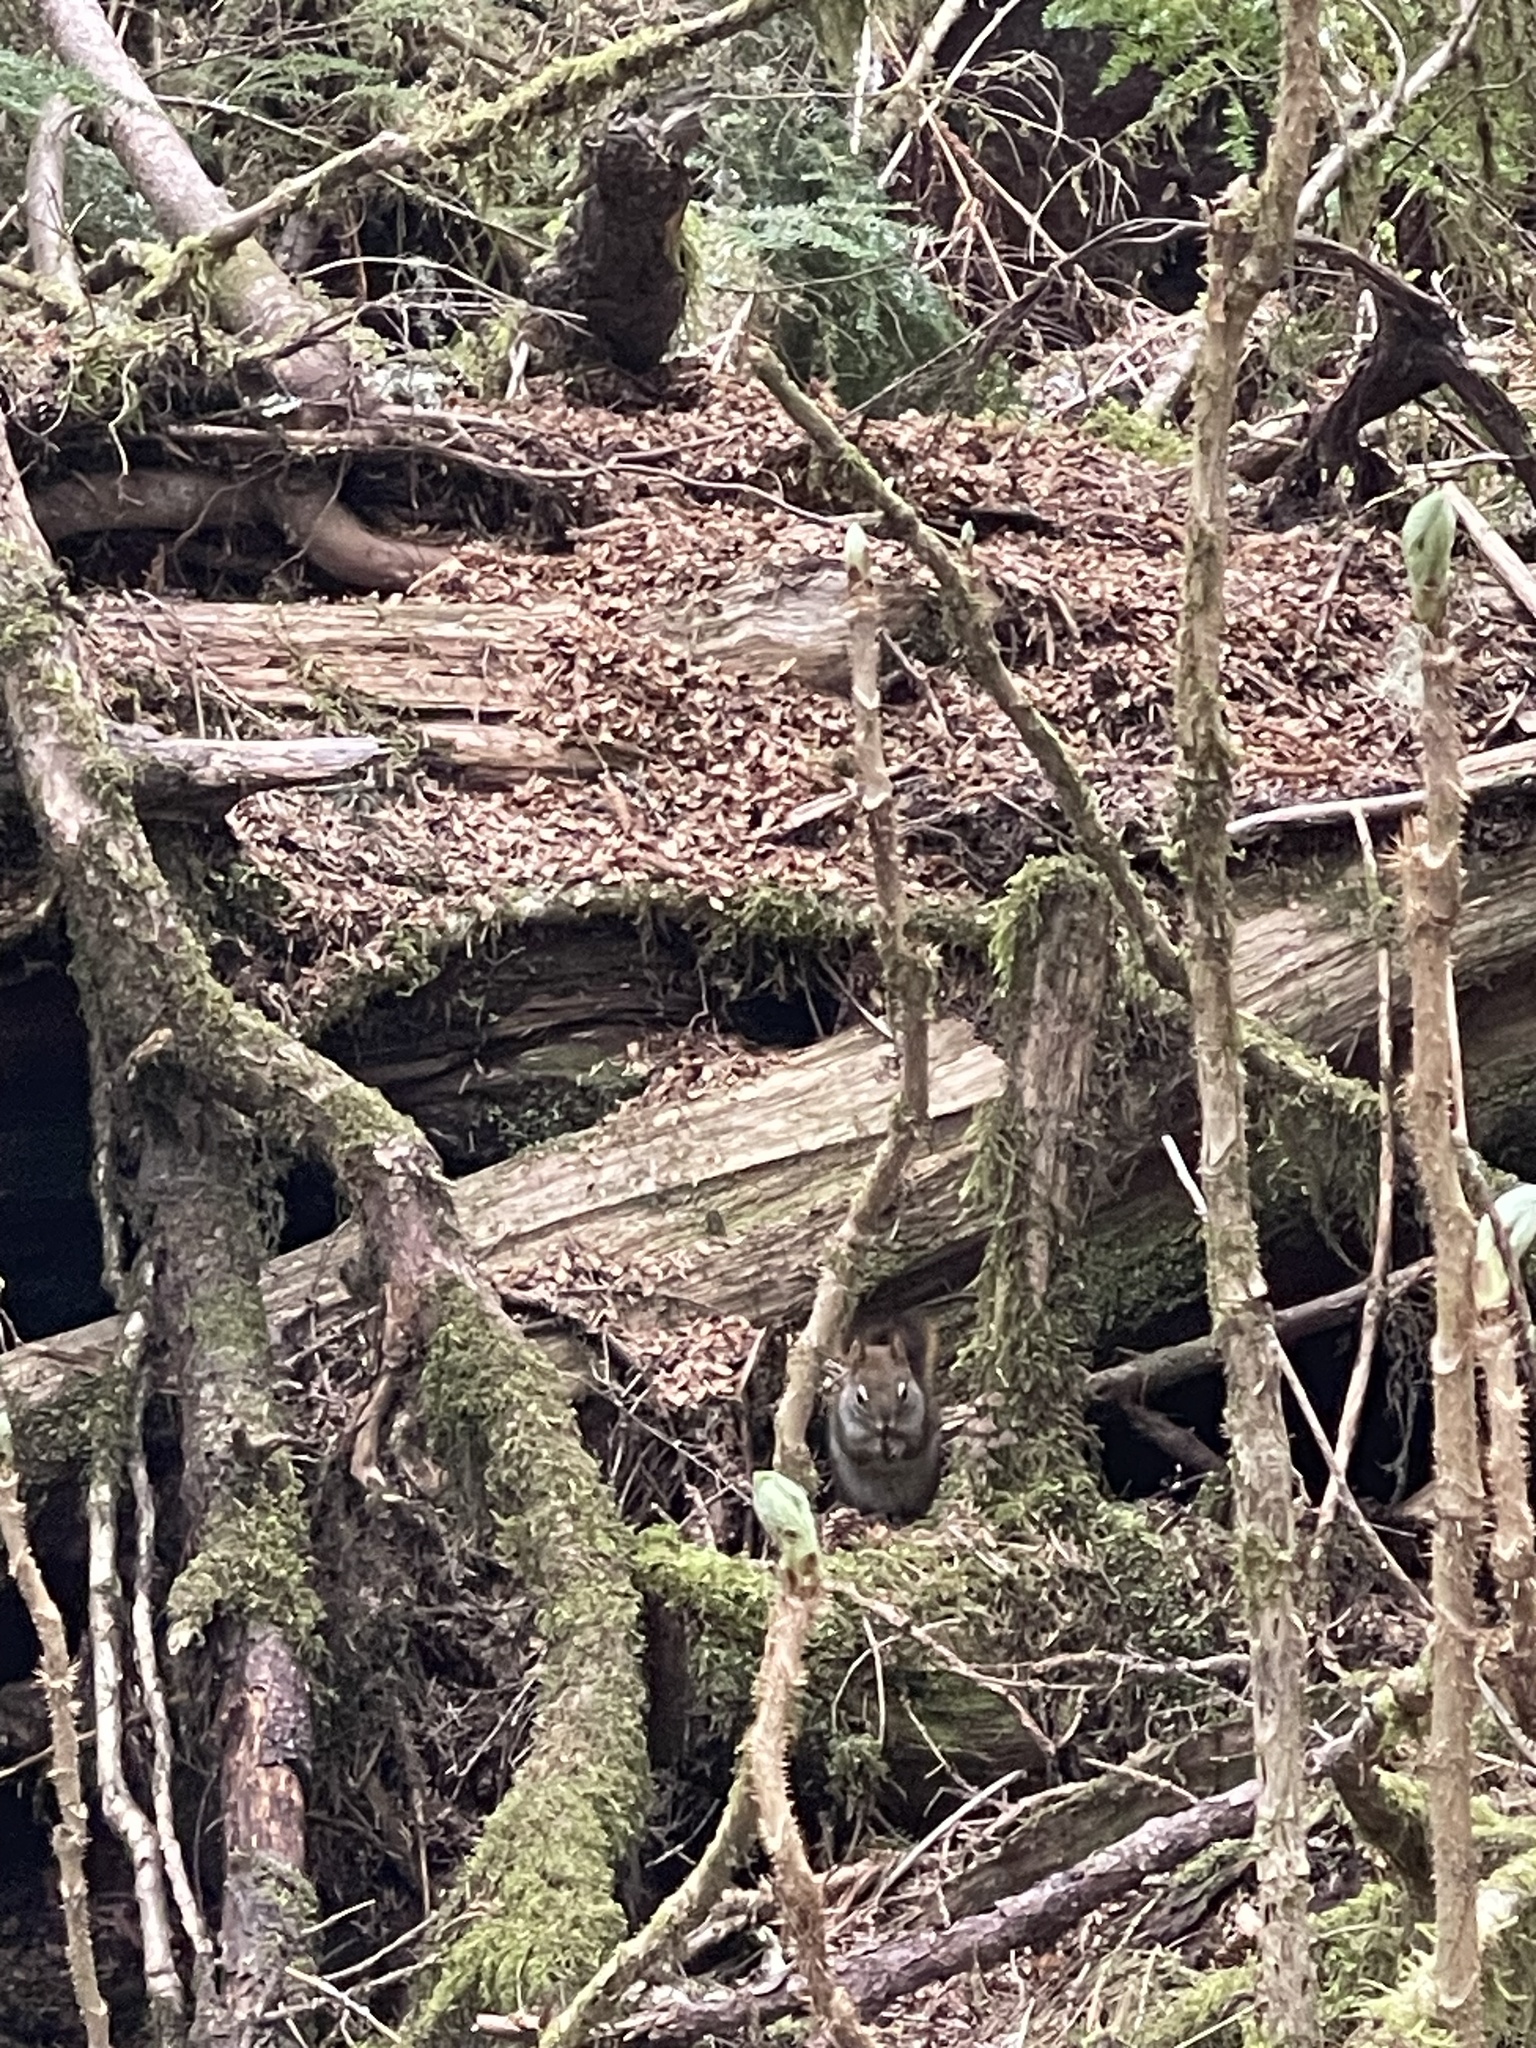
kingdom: Animalia
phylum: Chordata
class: Mammalia
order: Rodentia
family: Sciuridae
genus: Tamiasciurus
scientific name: Tamiasciurus hudsonicus
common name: Red squirrel
